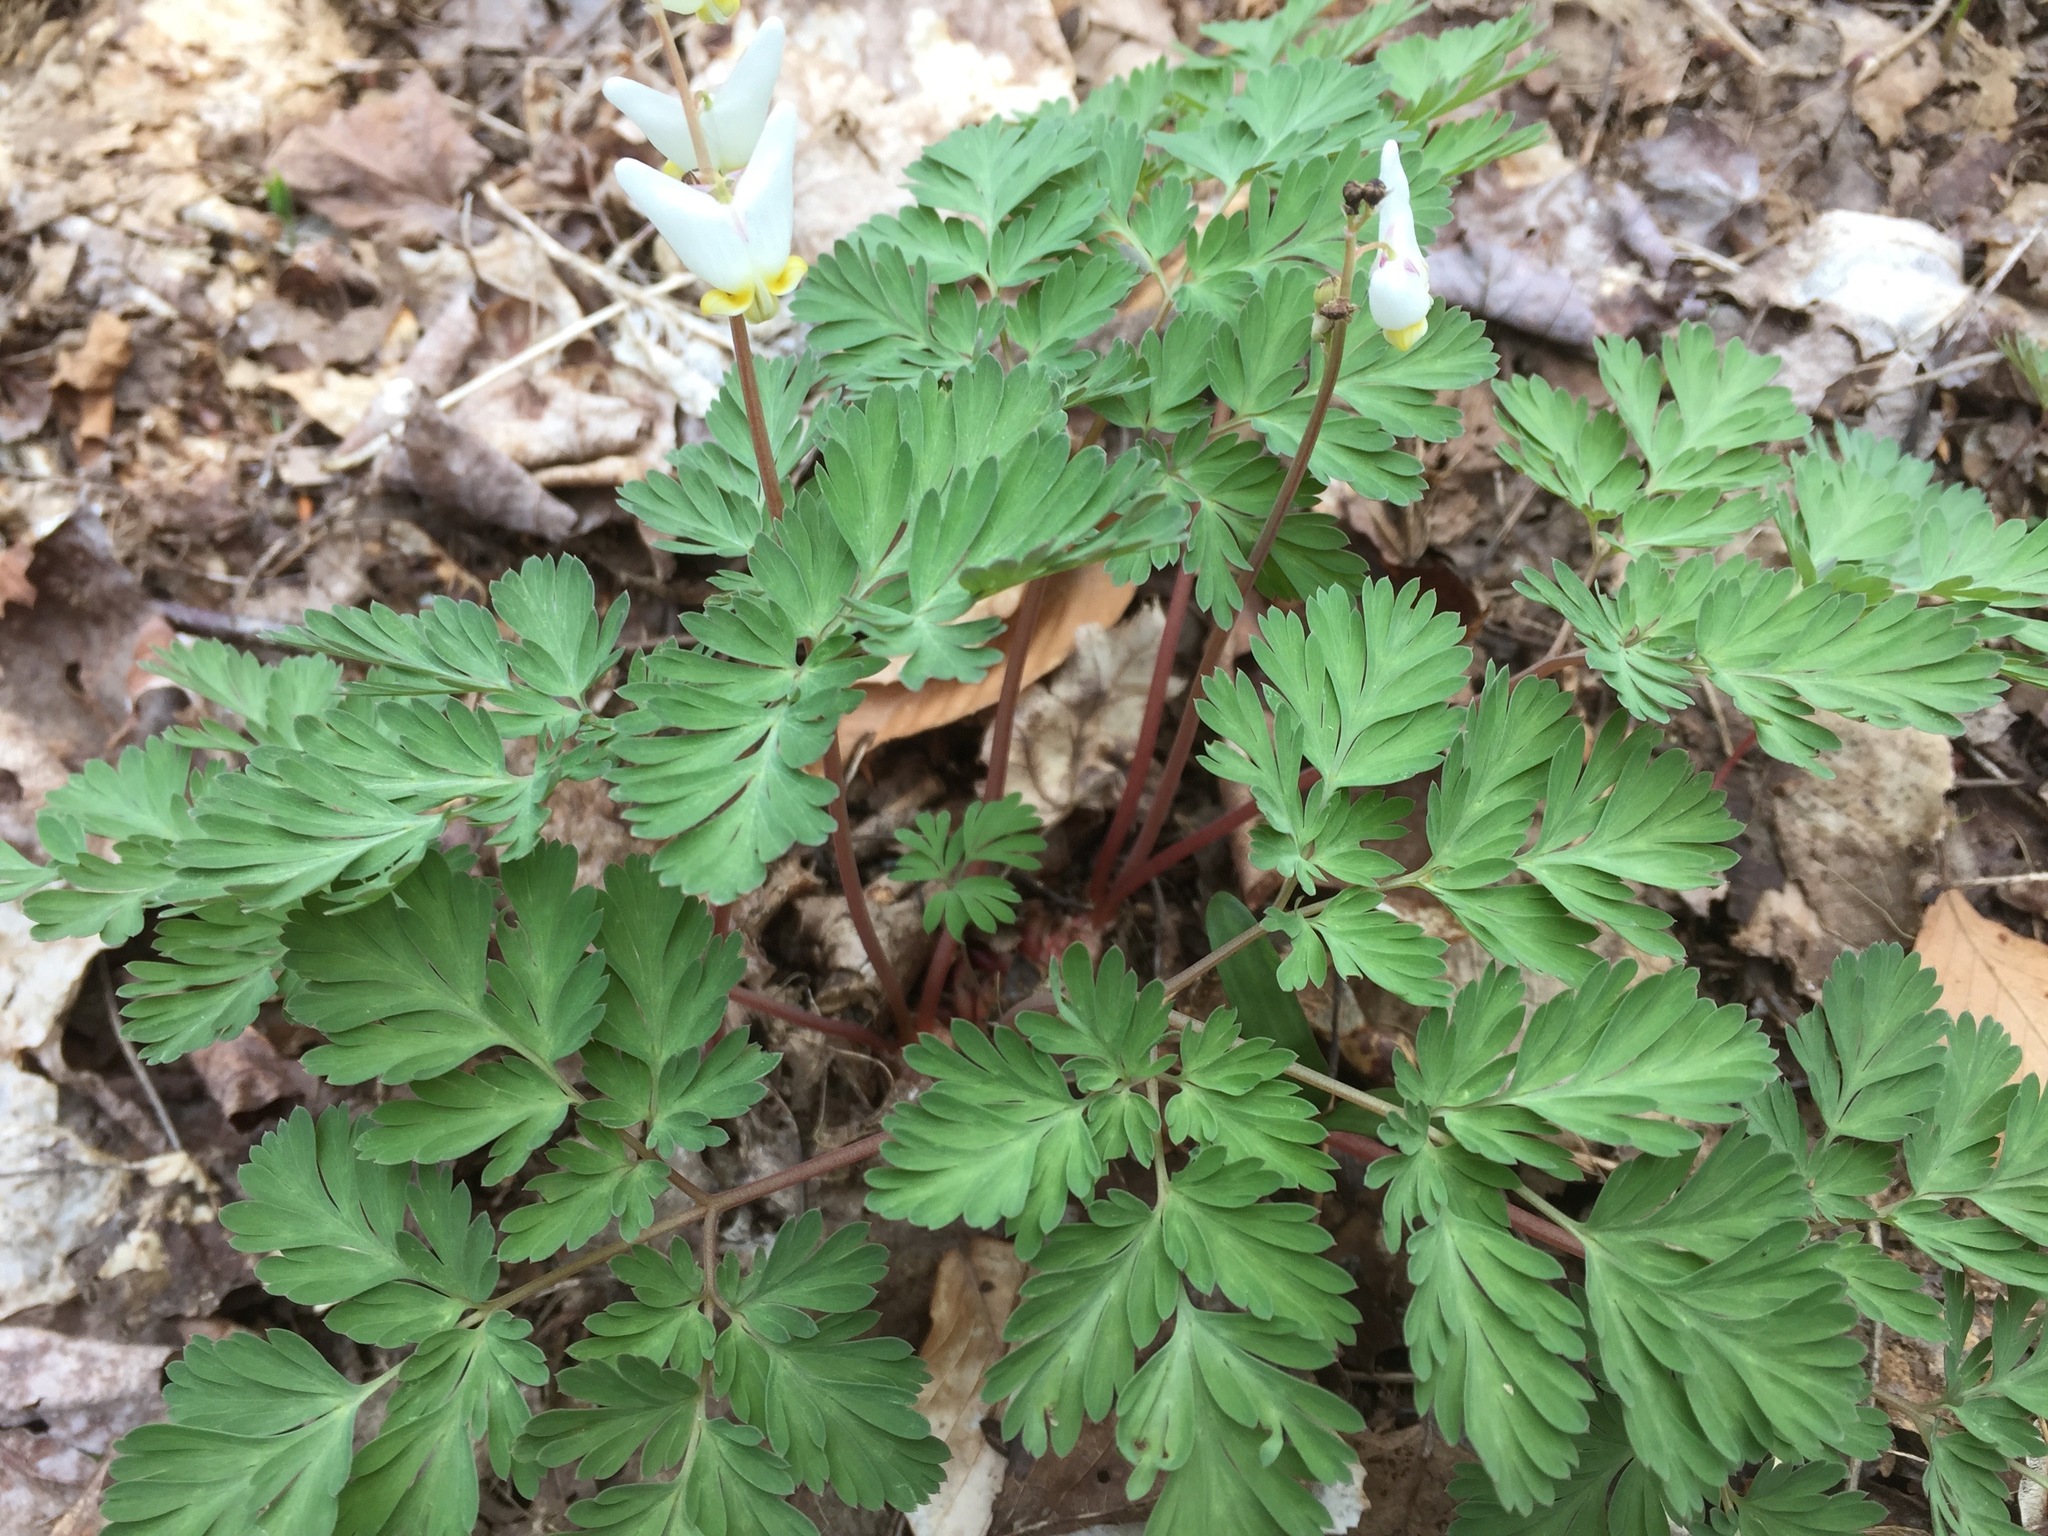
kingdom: Plantae
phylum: Tracheophyta
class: Magnoliopsida
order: Ranunculales
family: Papaveraceae
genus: Dicentra
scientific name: Dicentra cucullaria
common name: Dutchman's breeches
